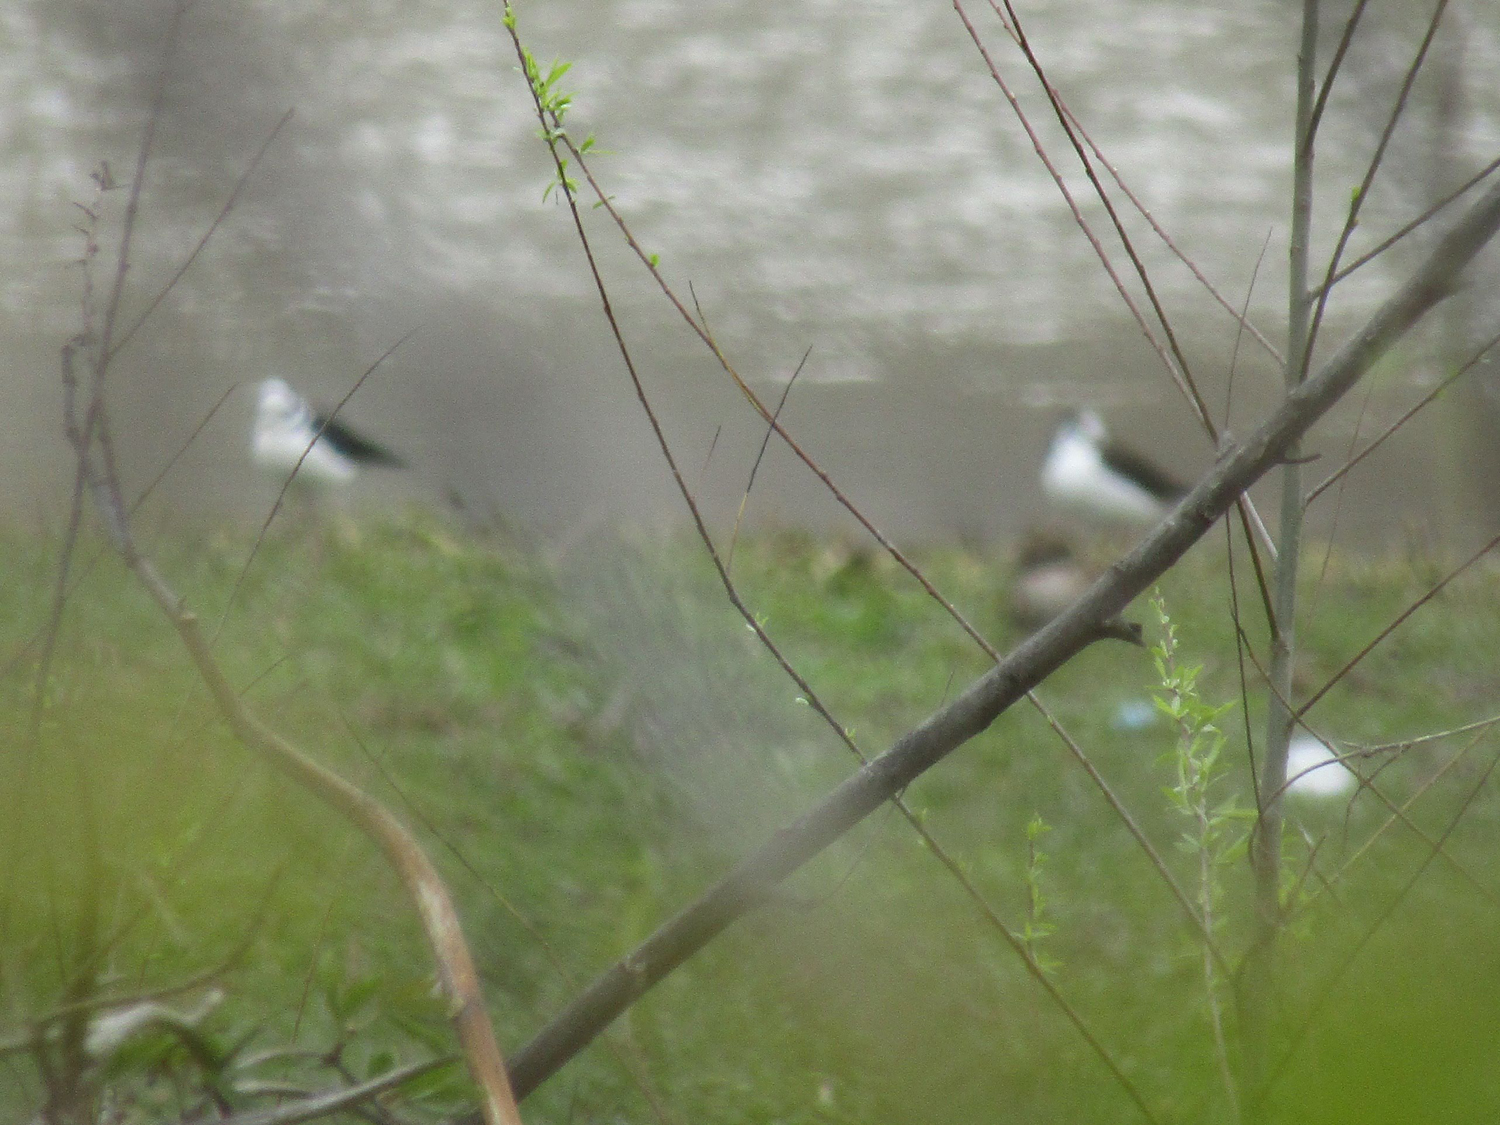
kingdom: Animalia
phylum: Chordata
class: Aves
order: Charadriiformes
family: Recurvirostridae
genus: Himantopus
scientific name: Himantopus mexicanus
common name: Black-necked stilt
